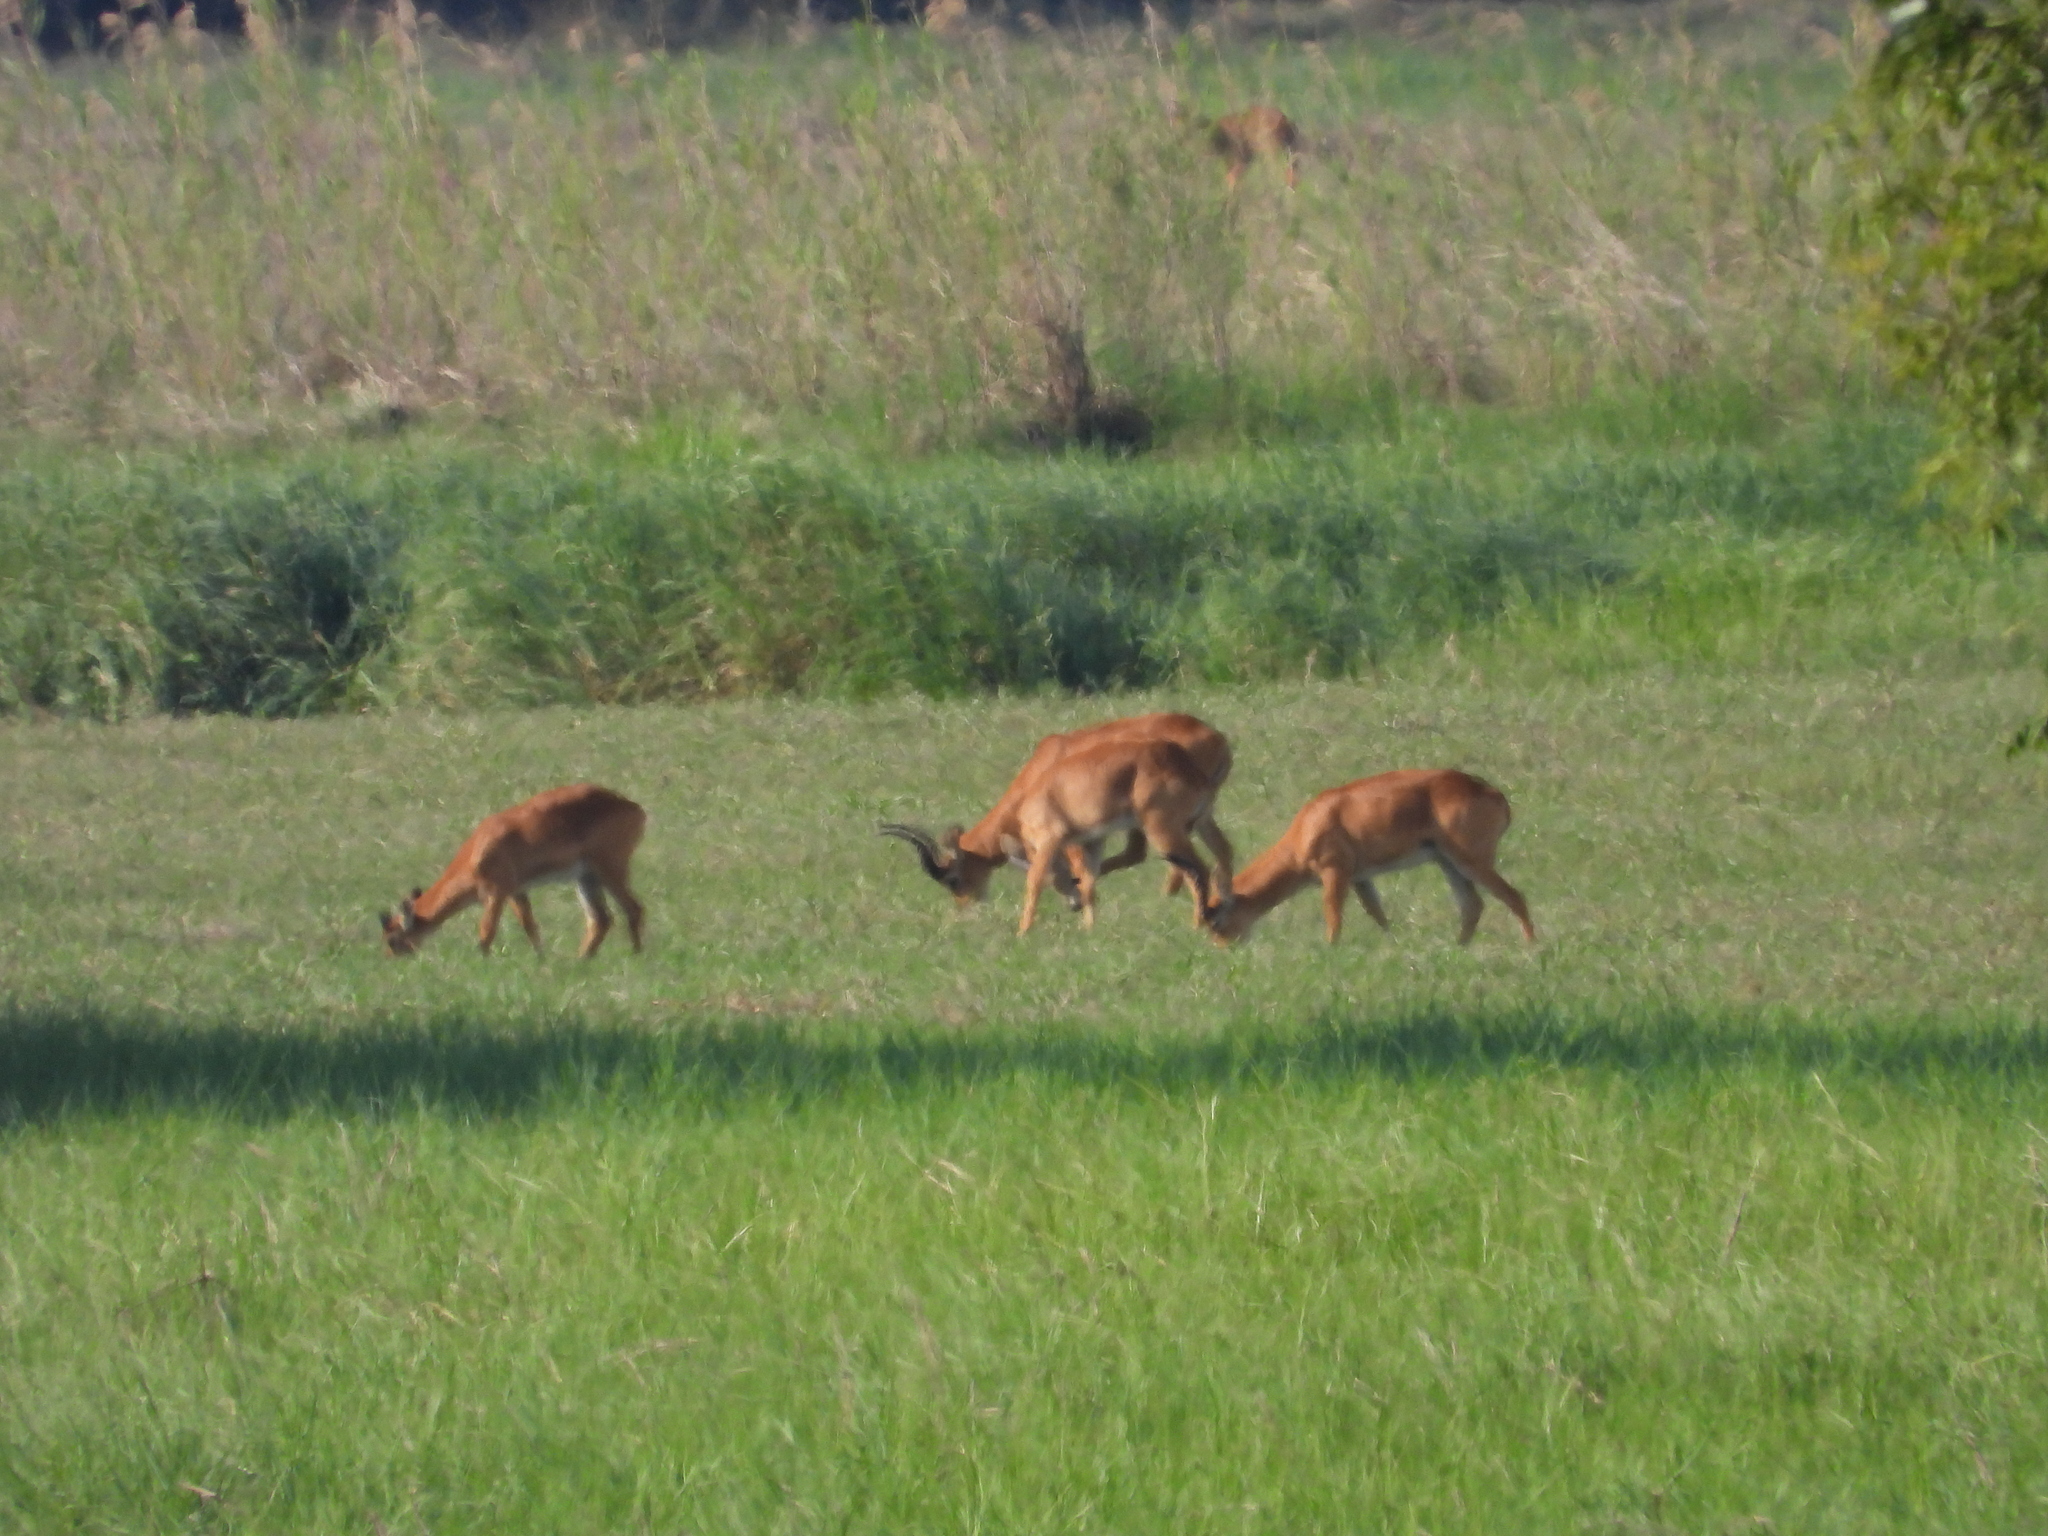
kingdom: Animalia
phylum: Chordata
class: Mammalia
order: Artiodactyla
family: Bovidae
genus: Kobus
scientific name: Kobus vardonii
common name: Puku
